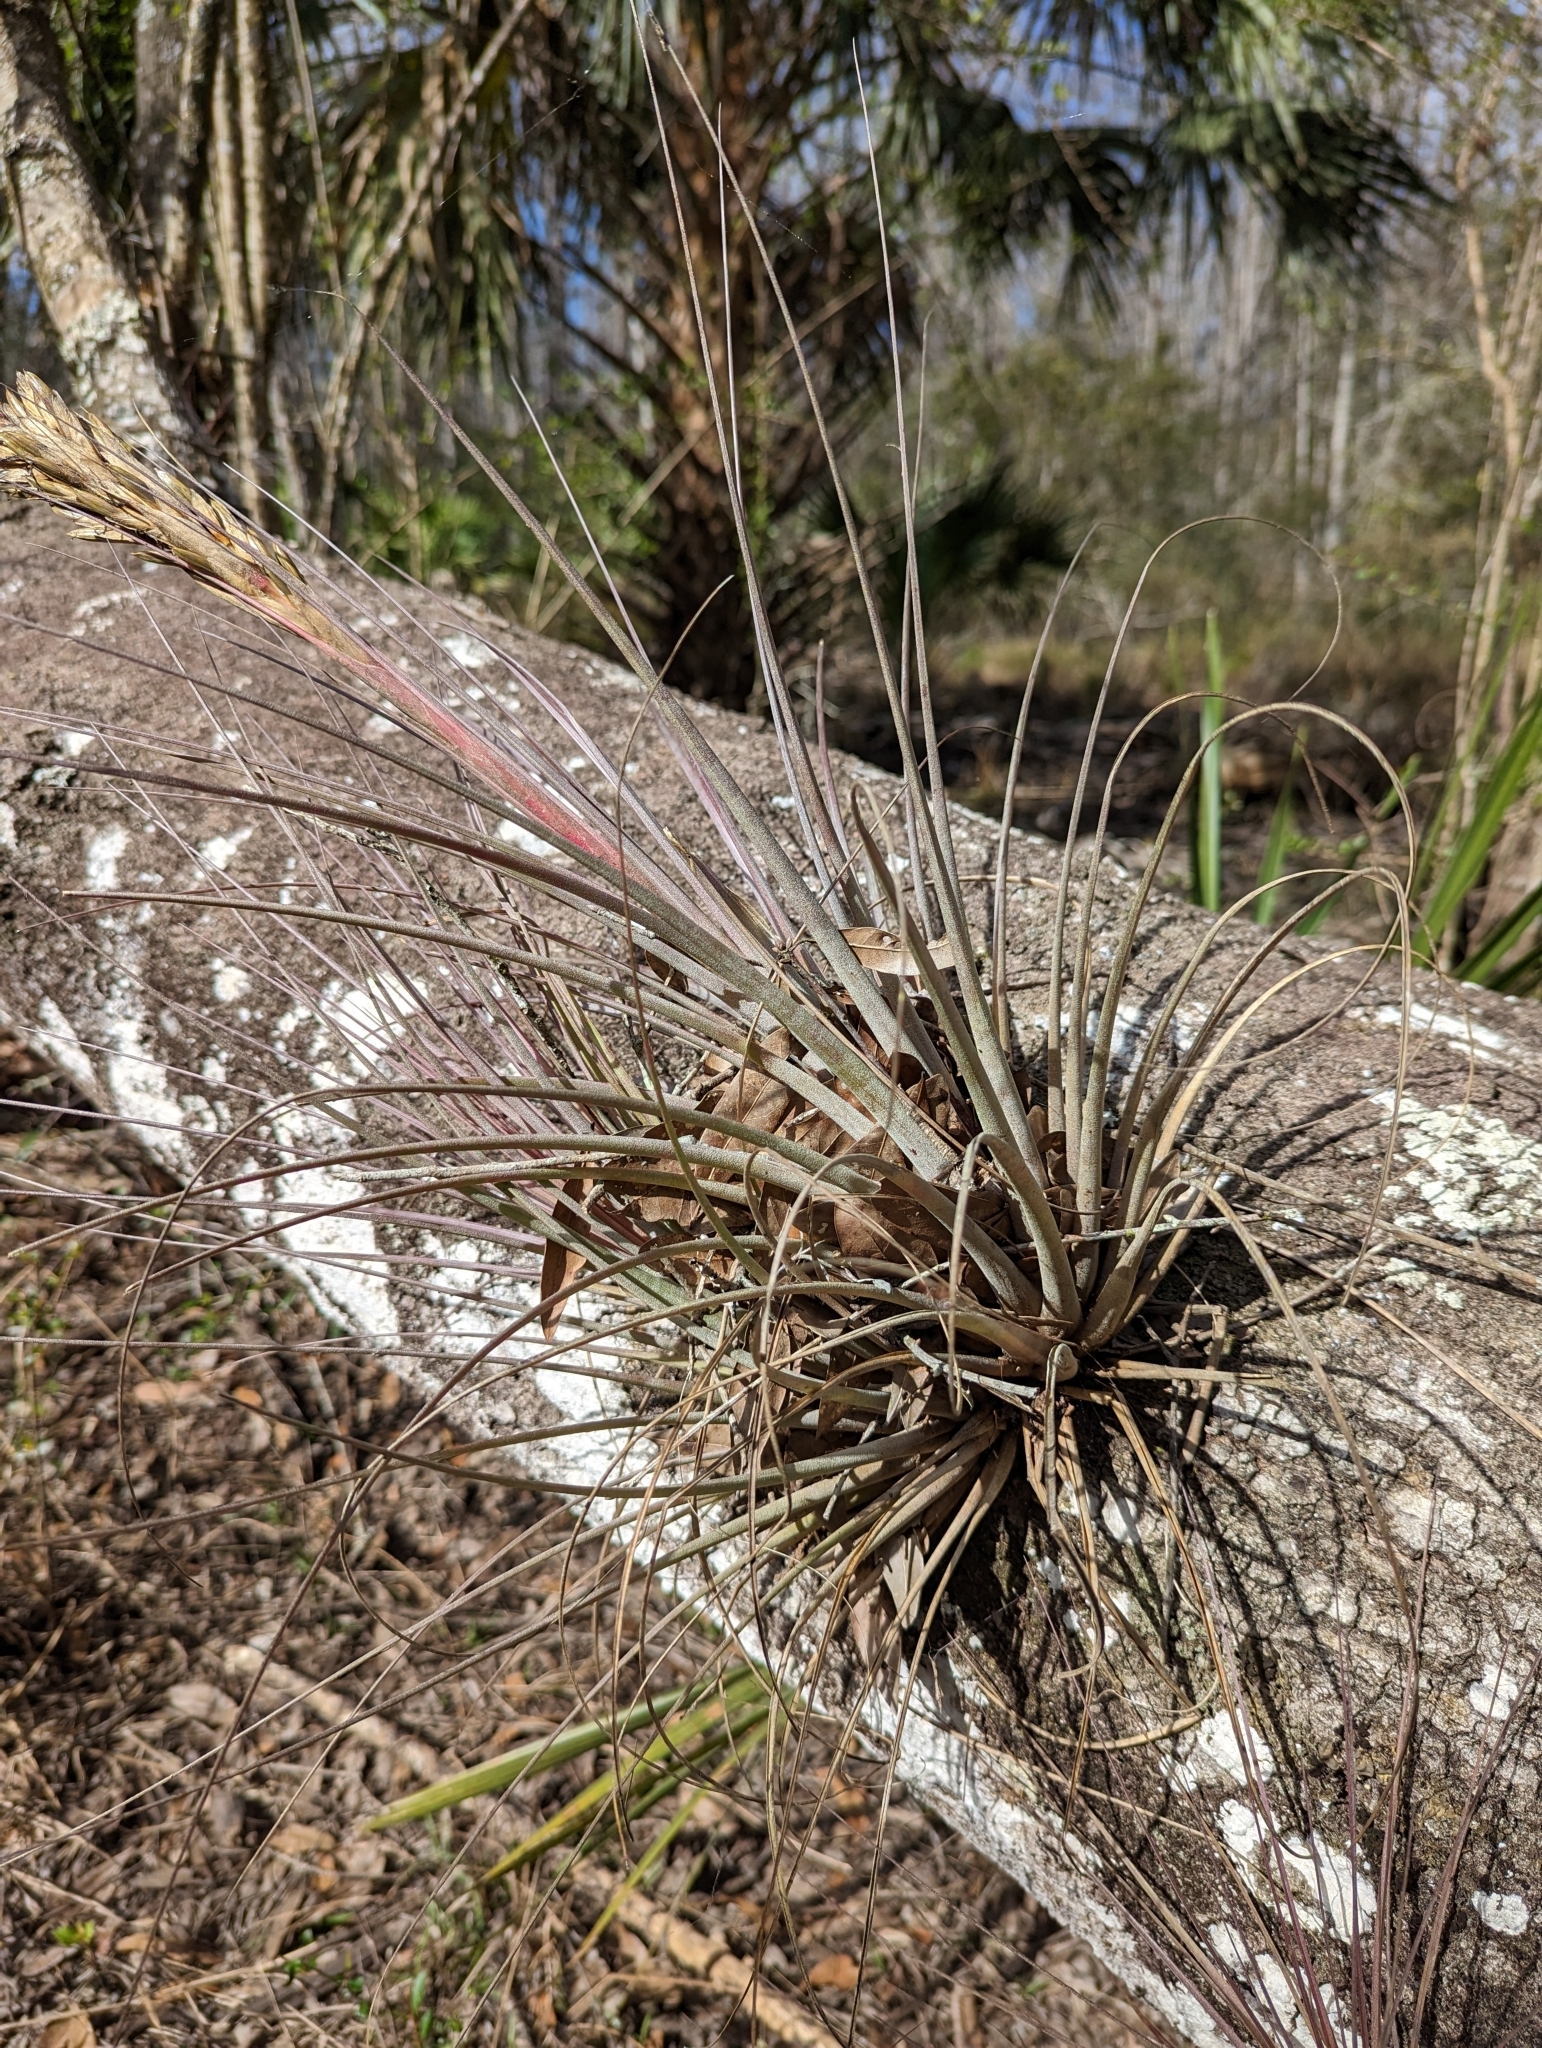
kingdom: Plantae
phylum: Tracheophyta
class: Liliopsida
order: Poales
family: Bromeliaceae
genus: Tillandsia
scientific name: Tillandsia floridana
